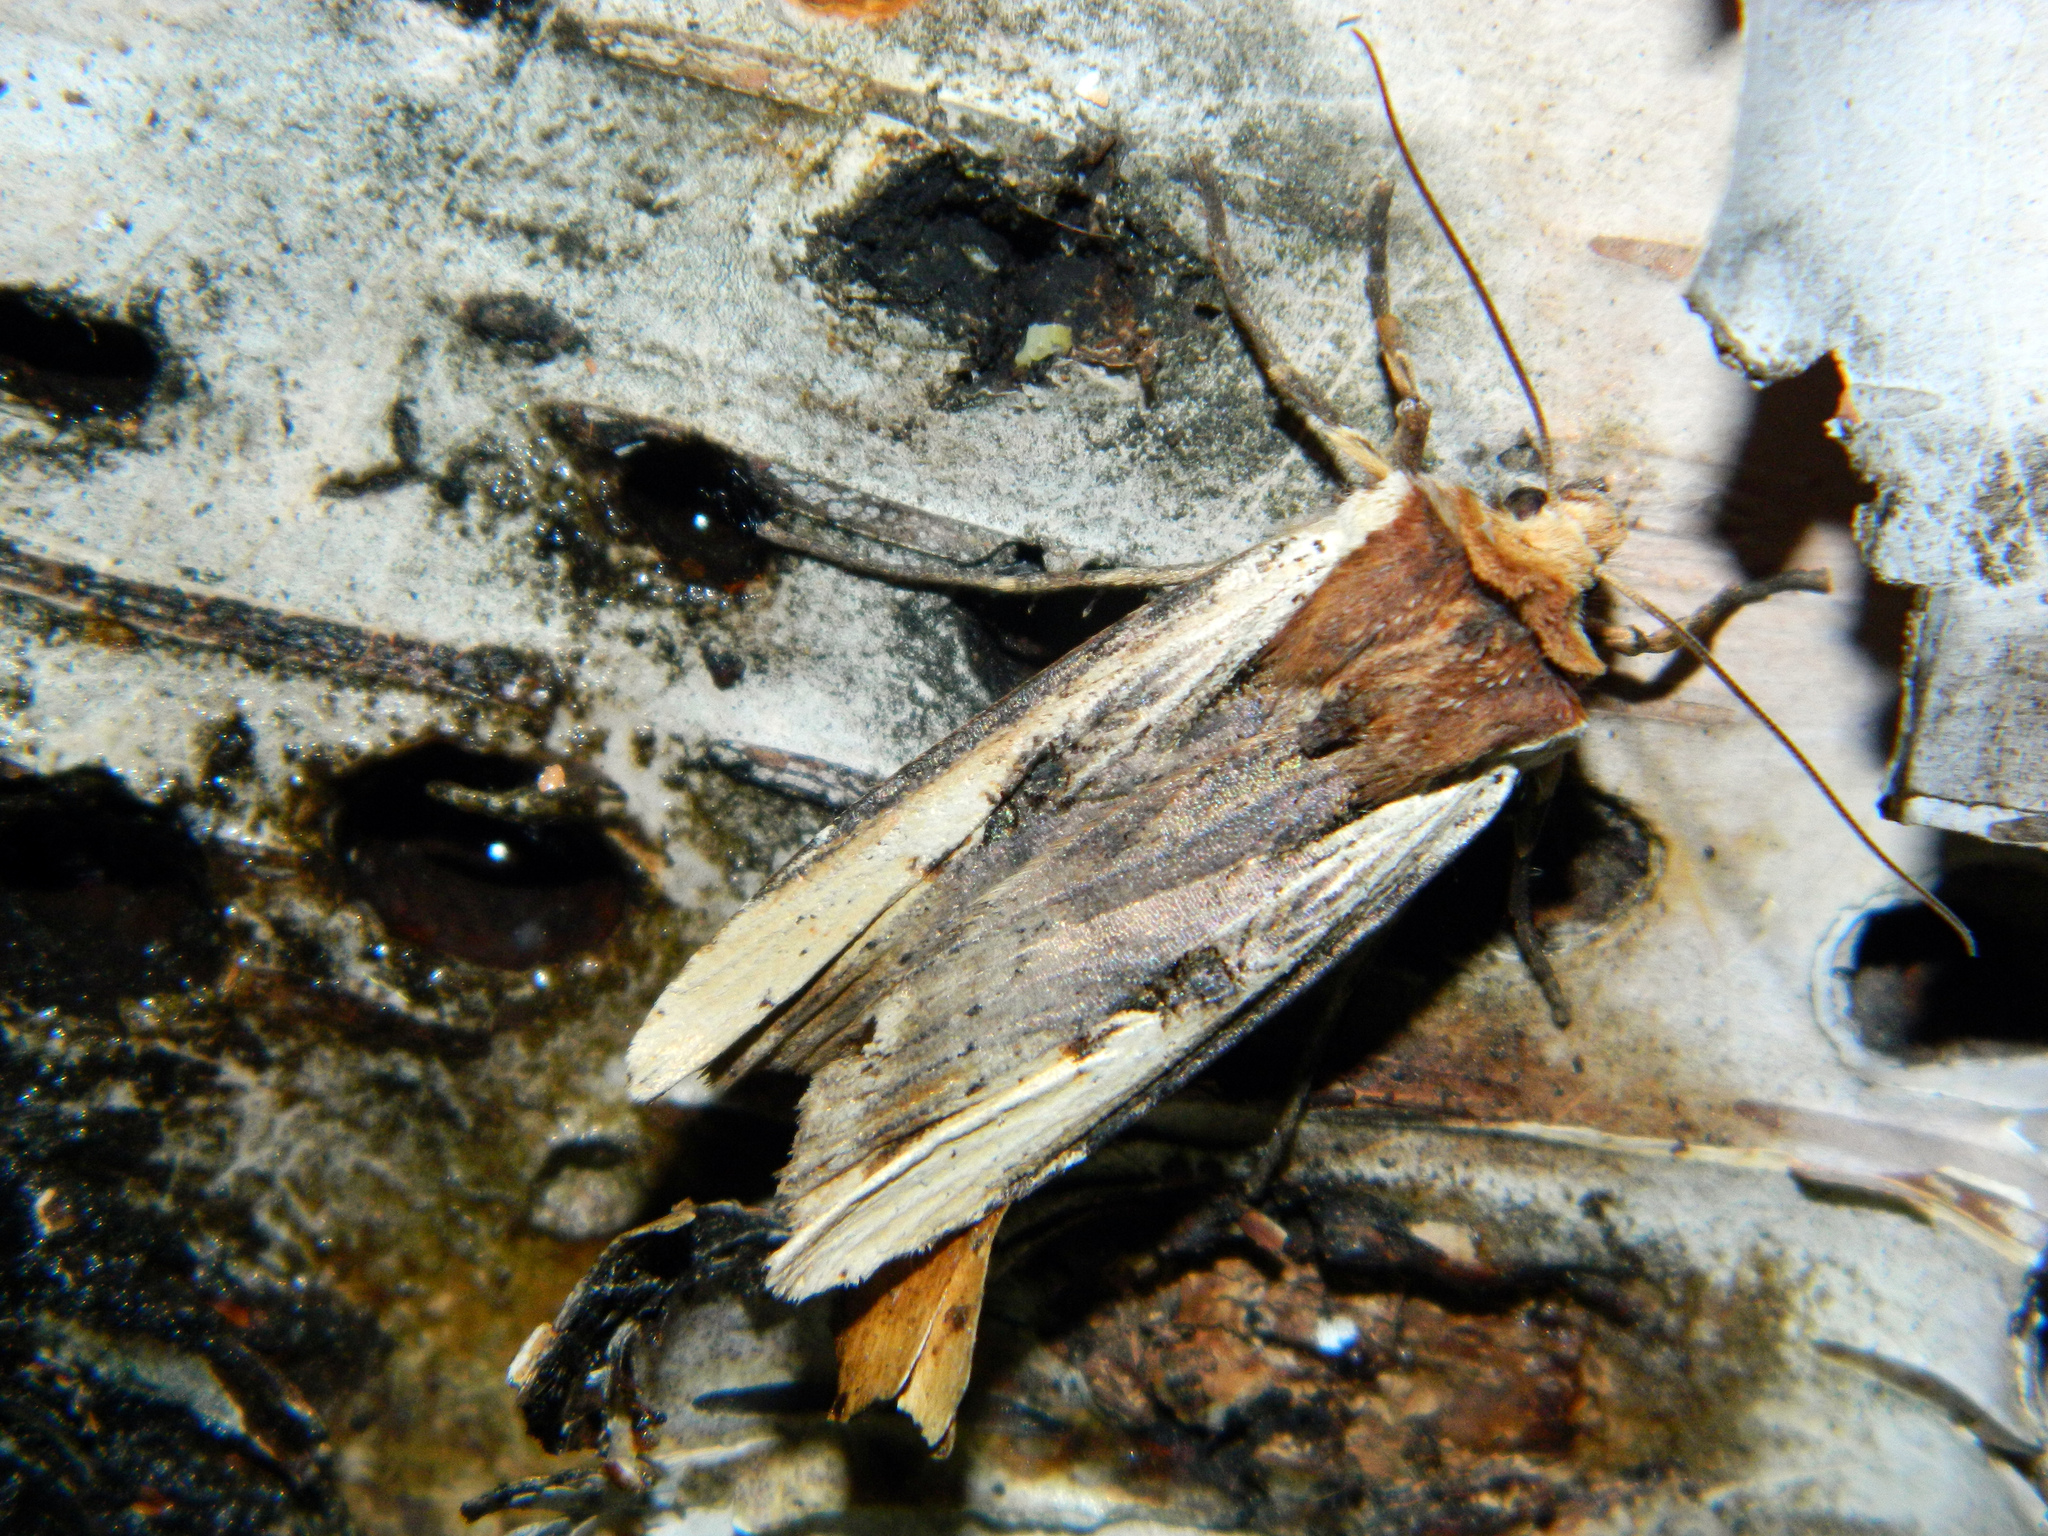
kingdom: Animalia
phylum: Arthropoda
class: Insecta
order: Lepidoptera
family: Noctuidae
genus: Xylena
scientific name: Xylena curvimacula
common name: Dot-and-dash swordgrass moth
